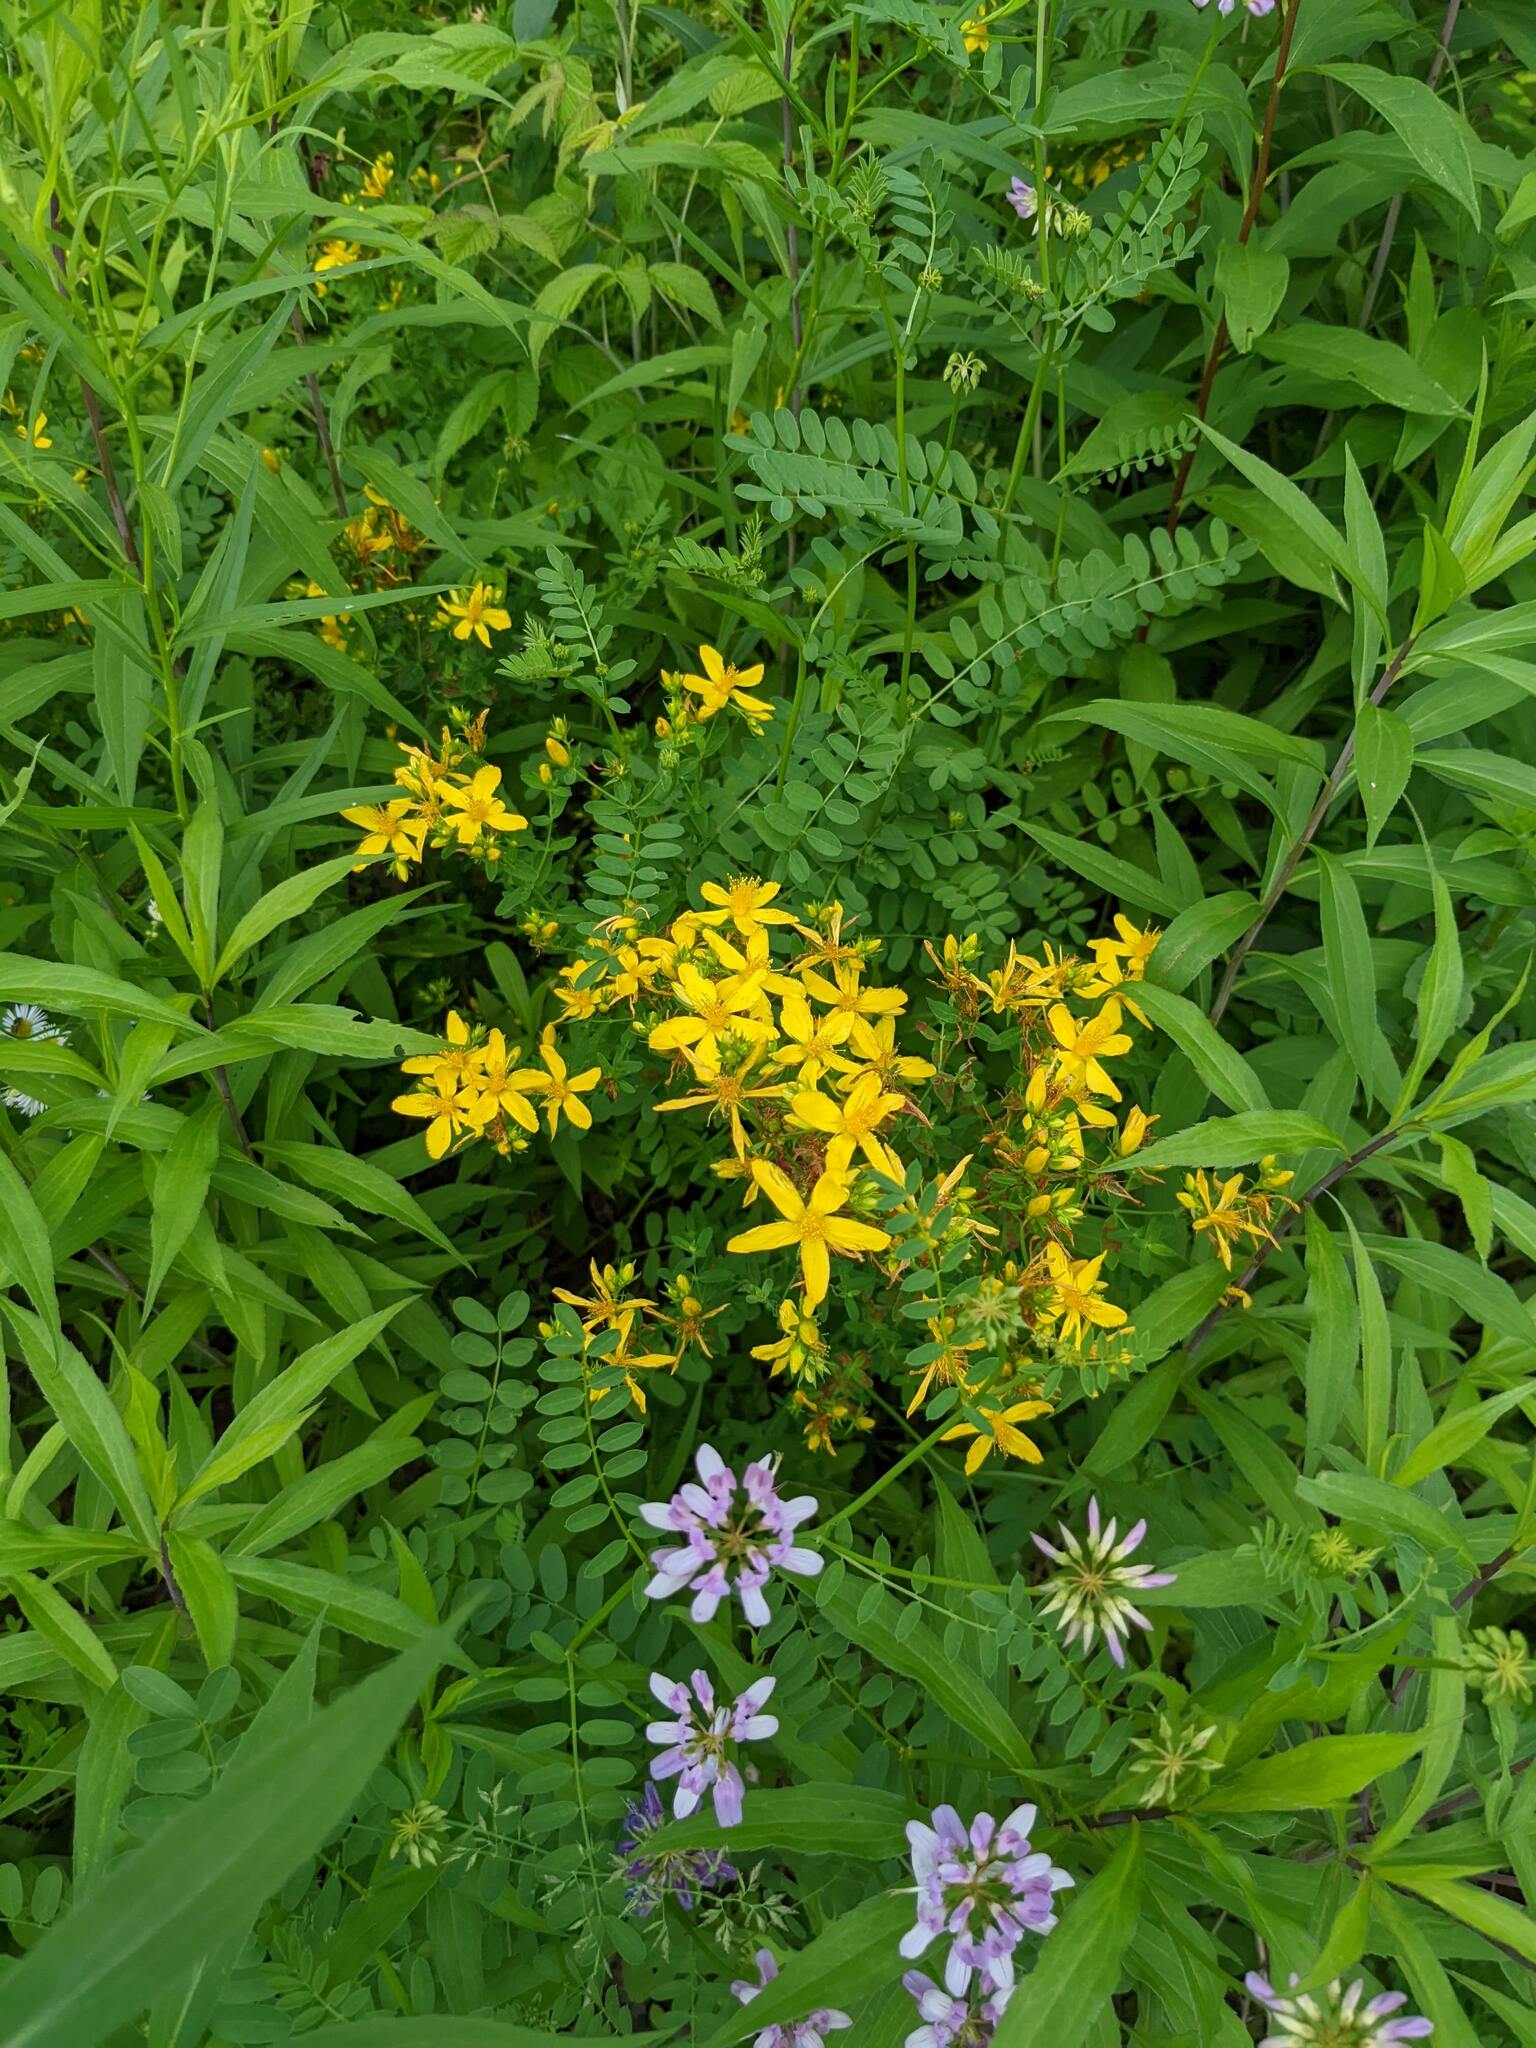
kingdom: Plantae
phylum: Tracheophyta
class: Magnoliopsida
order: Malpighiales
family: Hypericaceae
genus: Hypericum
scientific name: Hypericum perforatum
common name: Common st. johnswort
